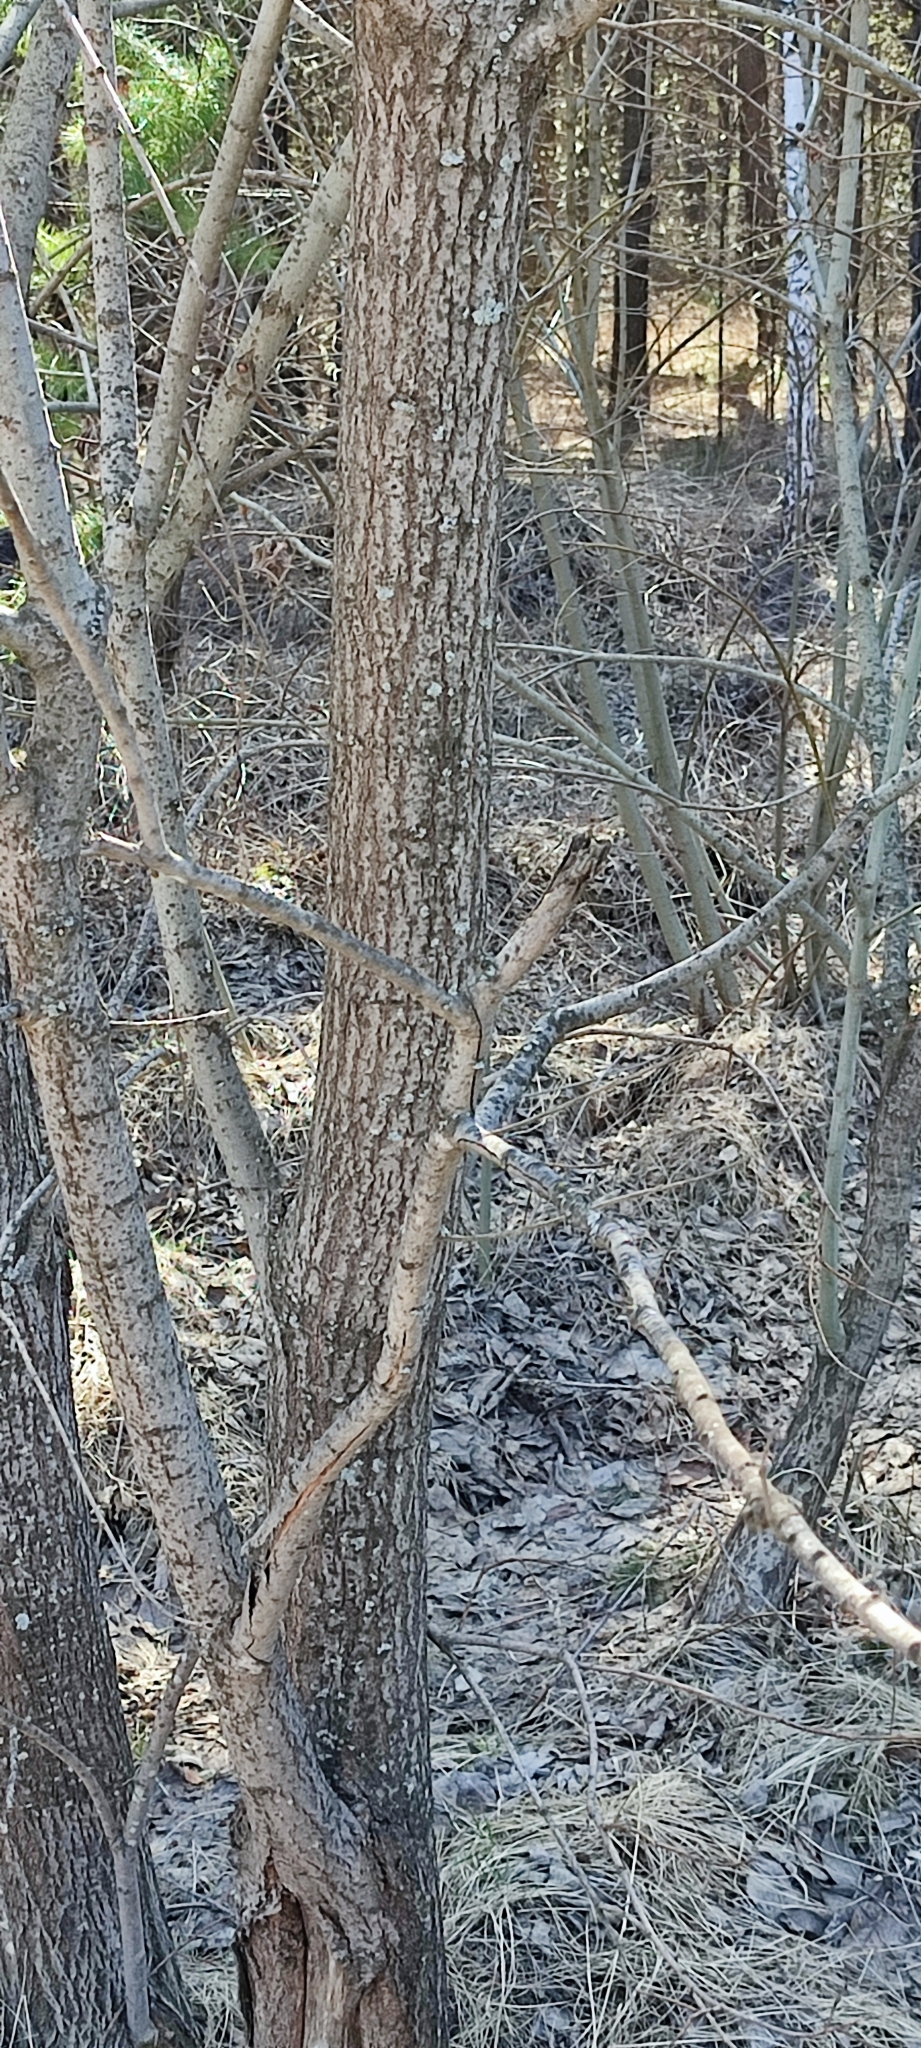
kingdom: Plantae
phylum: Tracheophyta
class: Magnoliopsida
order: Malpighiales
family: Salicaceae
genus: Salix
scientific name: Salix caprea
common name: Goat willow
